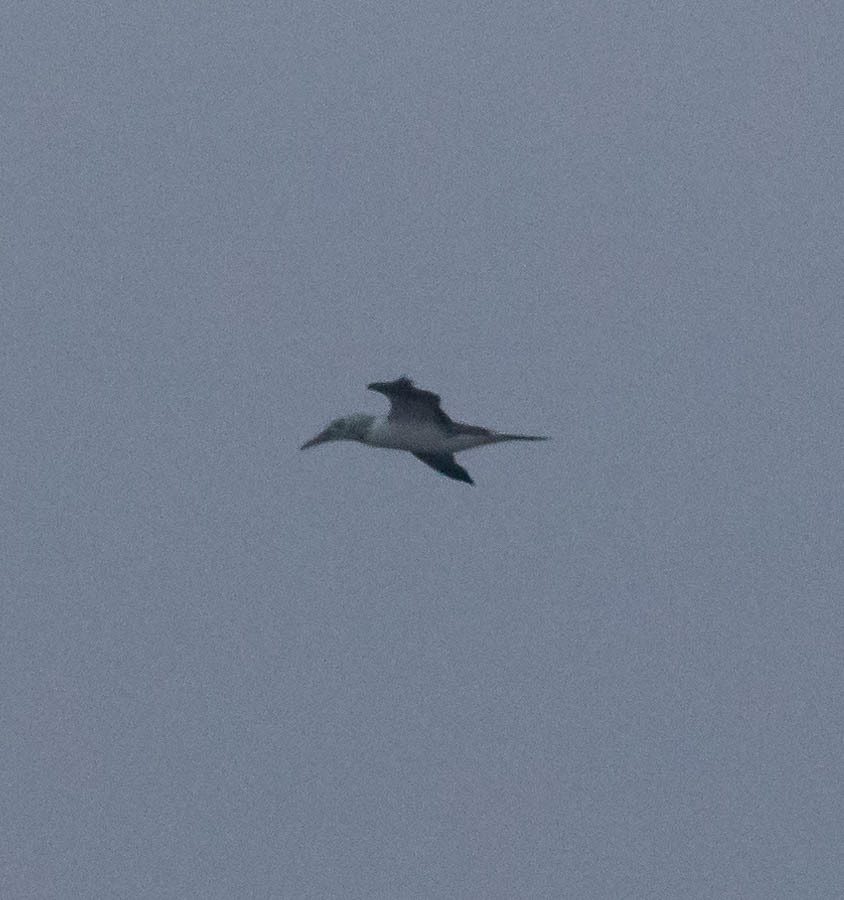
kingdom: Animalia
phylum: Chordata
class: Aves
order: Suliformes
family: Sulidae
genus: Morus
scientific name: Morus bassanus
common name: Northern gannet
